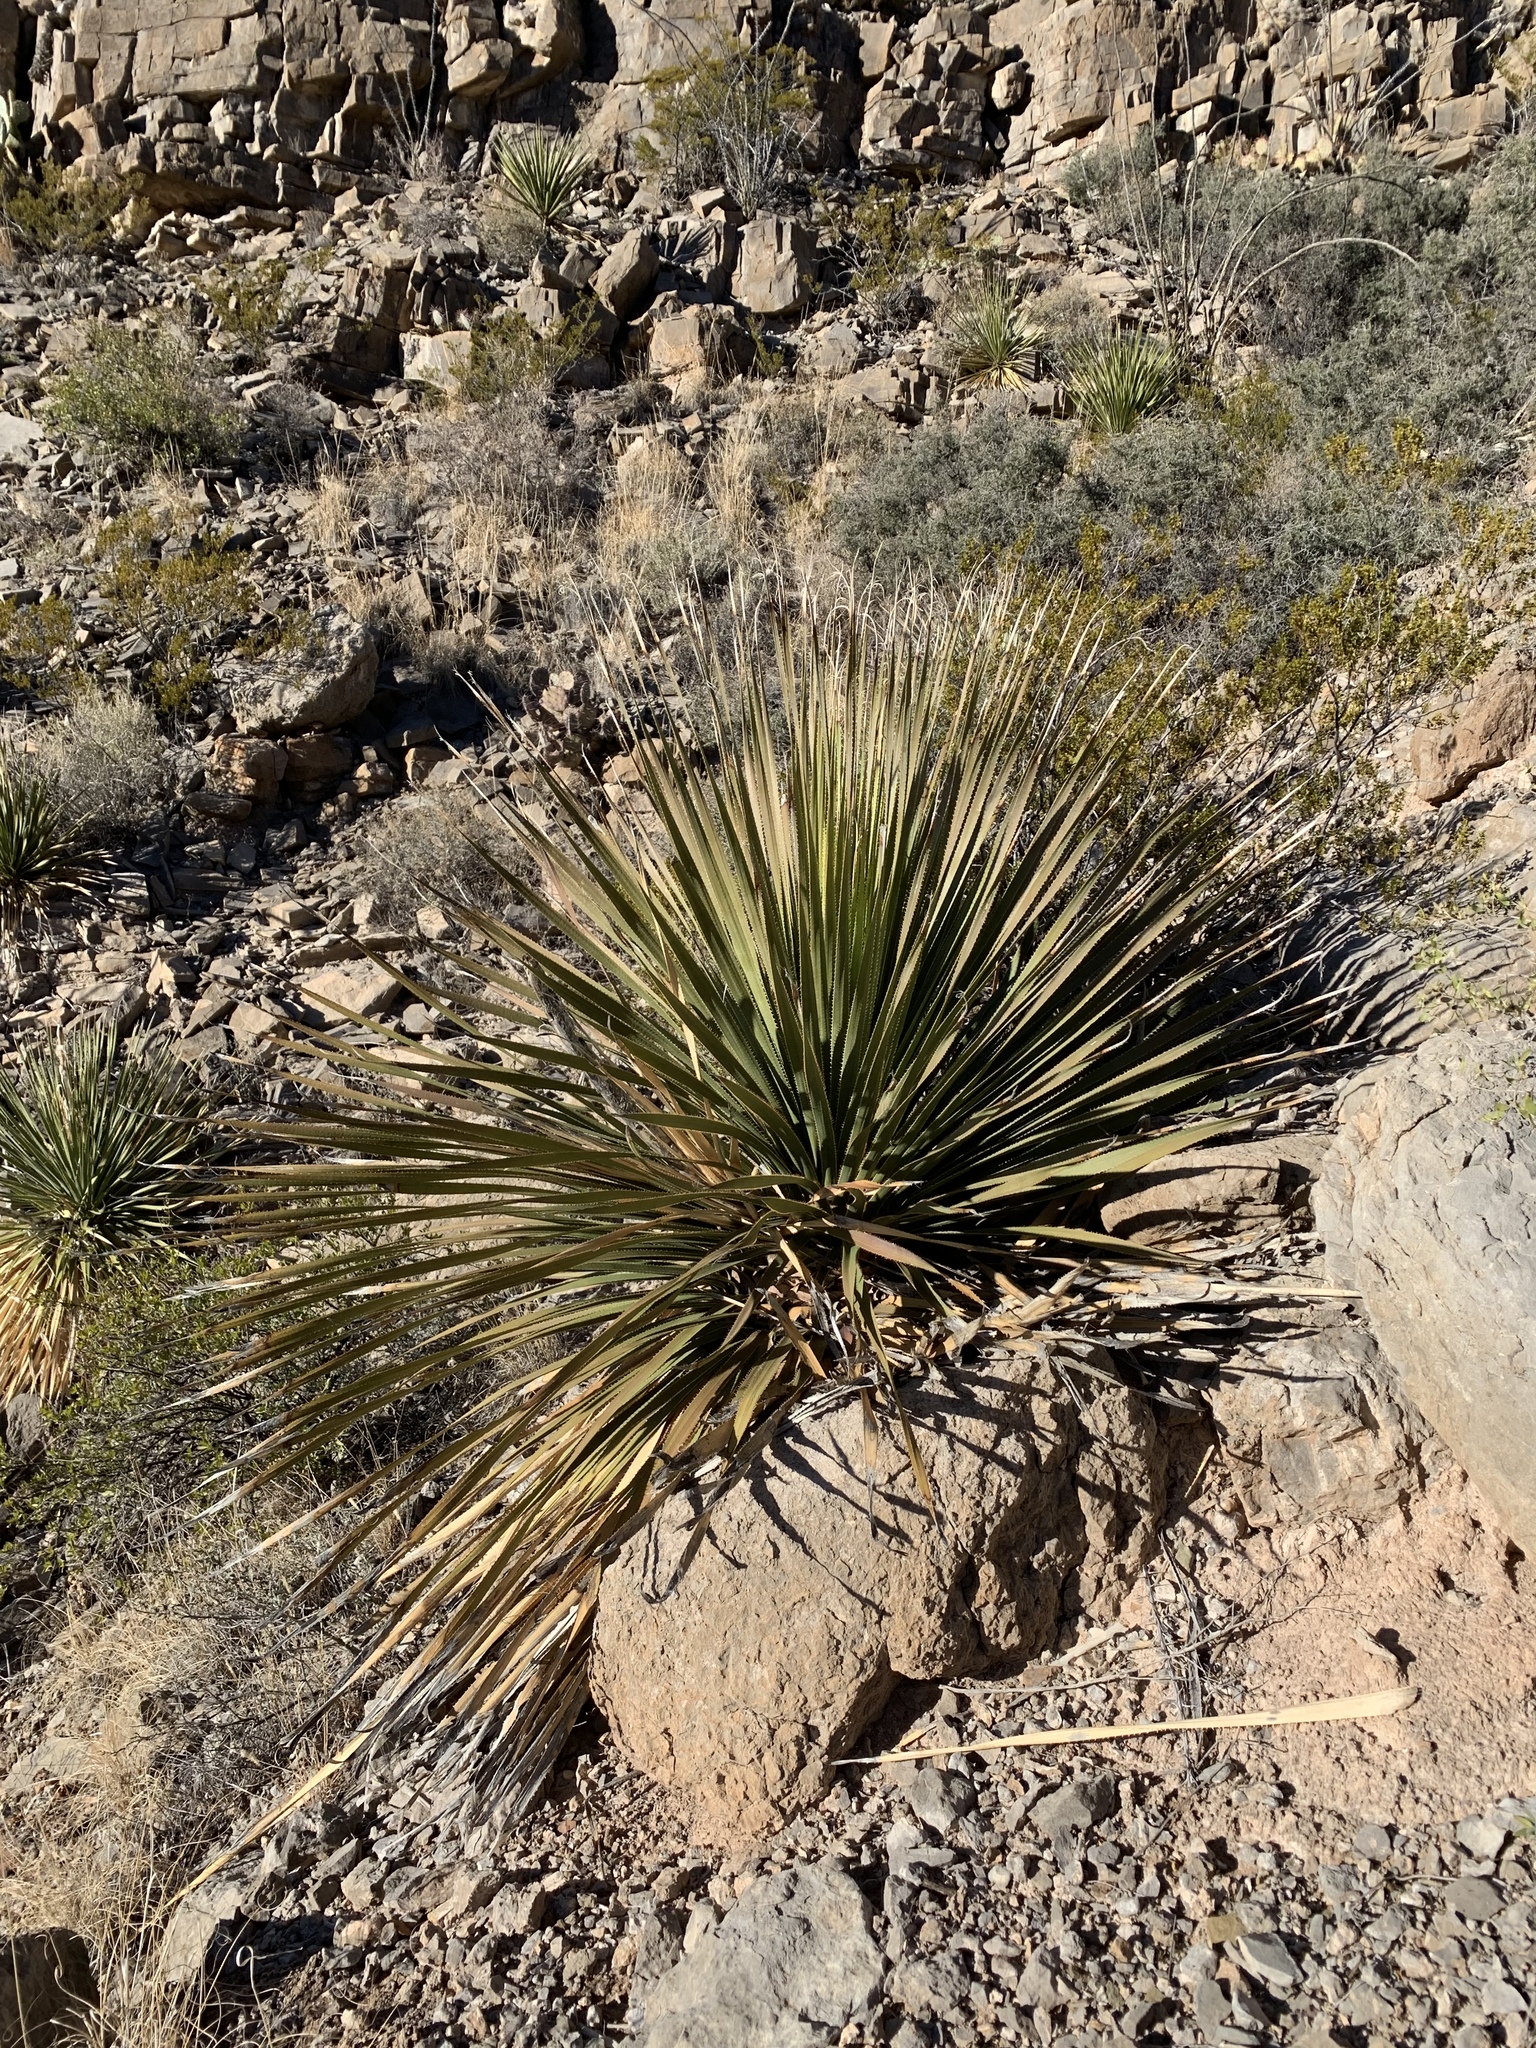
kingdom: Plantae
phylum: Tracheophyta
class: Liliopsida
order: Asparagales
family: Asparagaceae
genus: Dasylirion
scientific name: Dasylirion wheeleri
